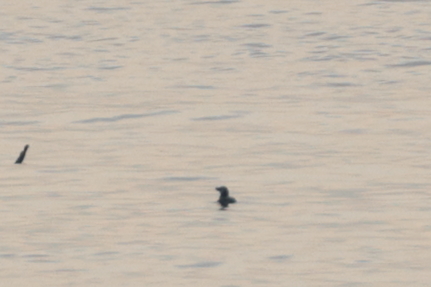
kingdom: Animalia
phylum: Chordata
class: Aves
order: Charadriiformes
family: Alcidae
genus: Alca
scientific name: Alca torda
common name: Razorbill
